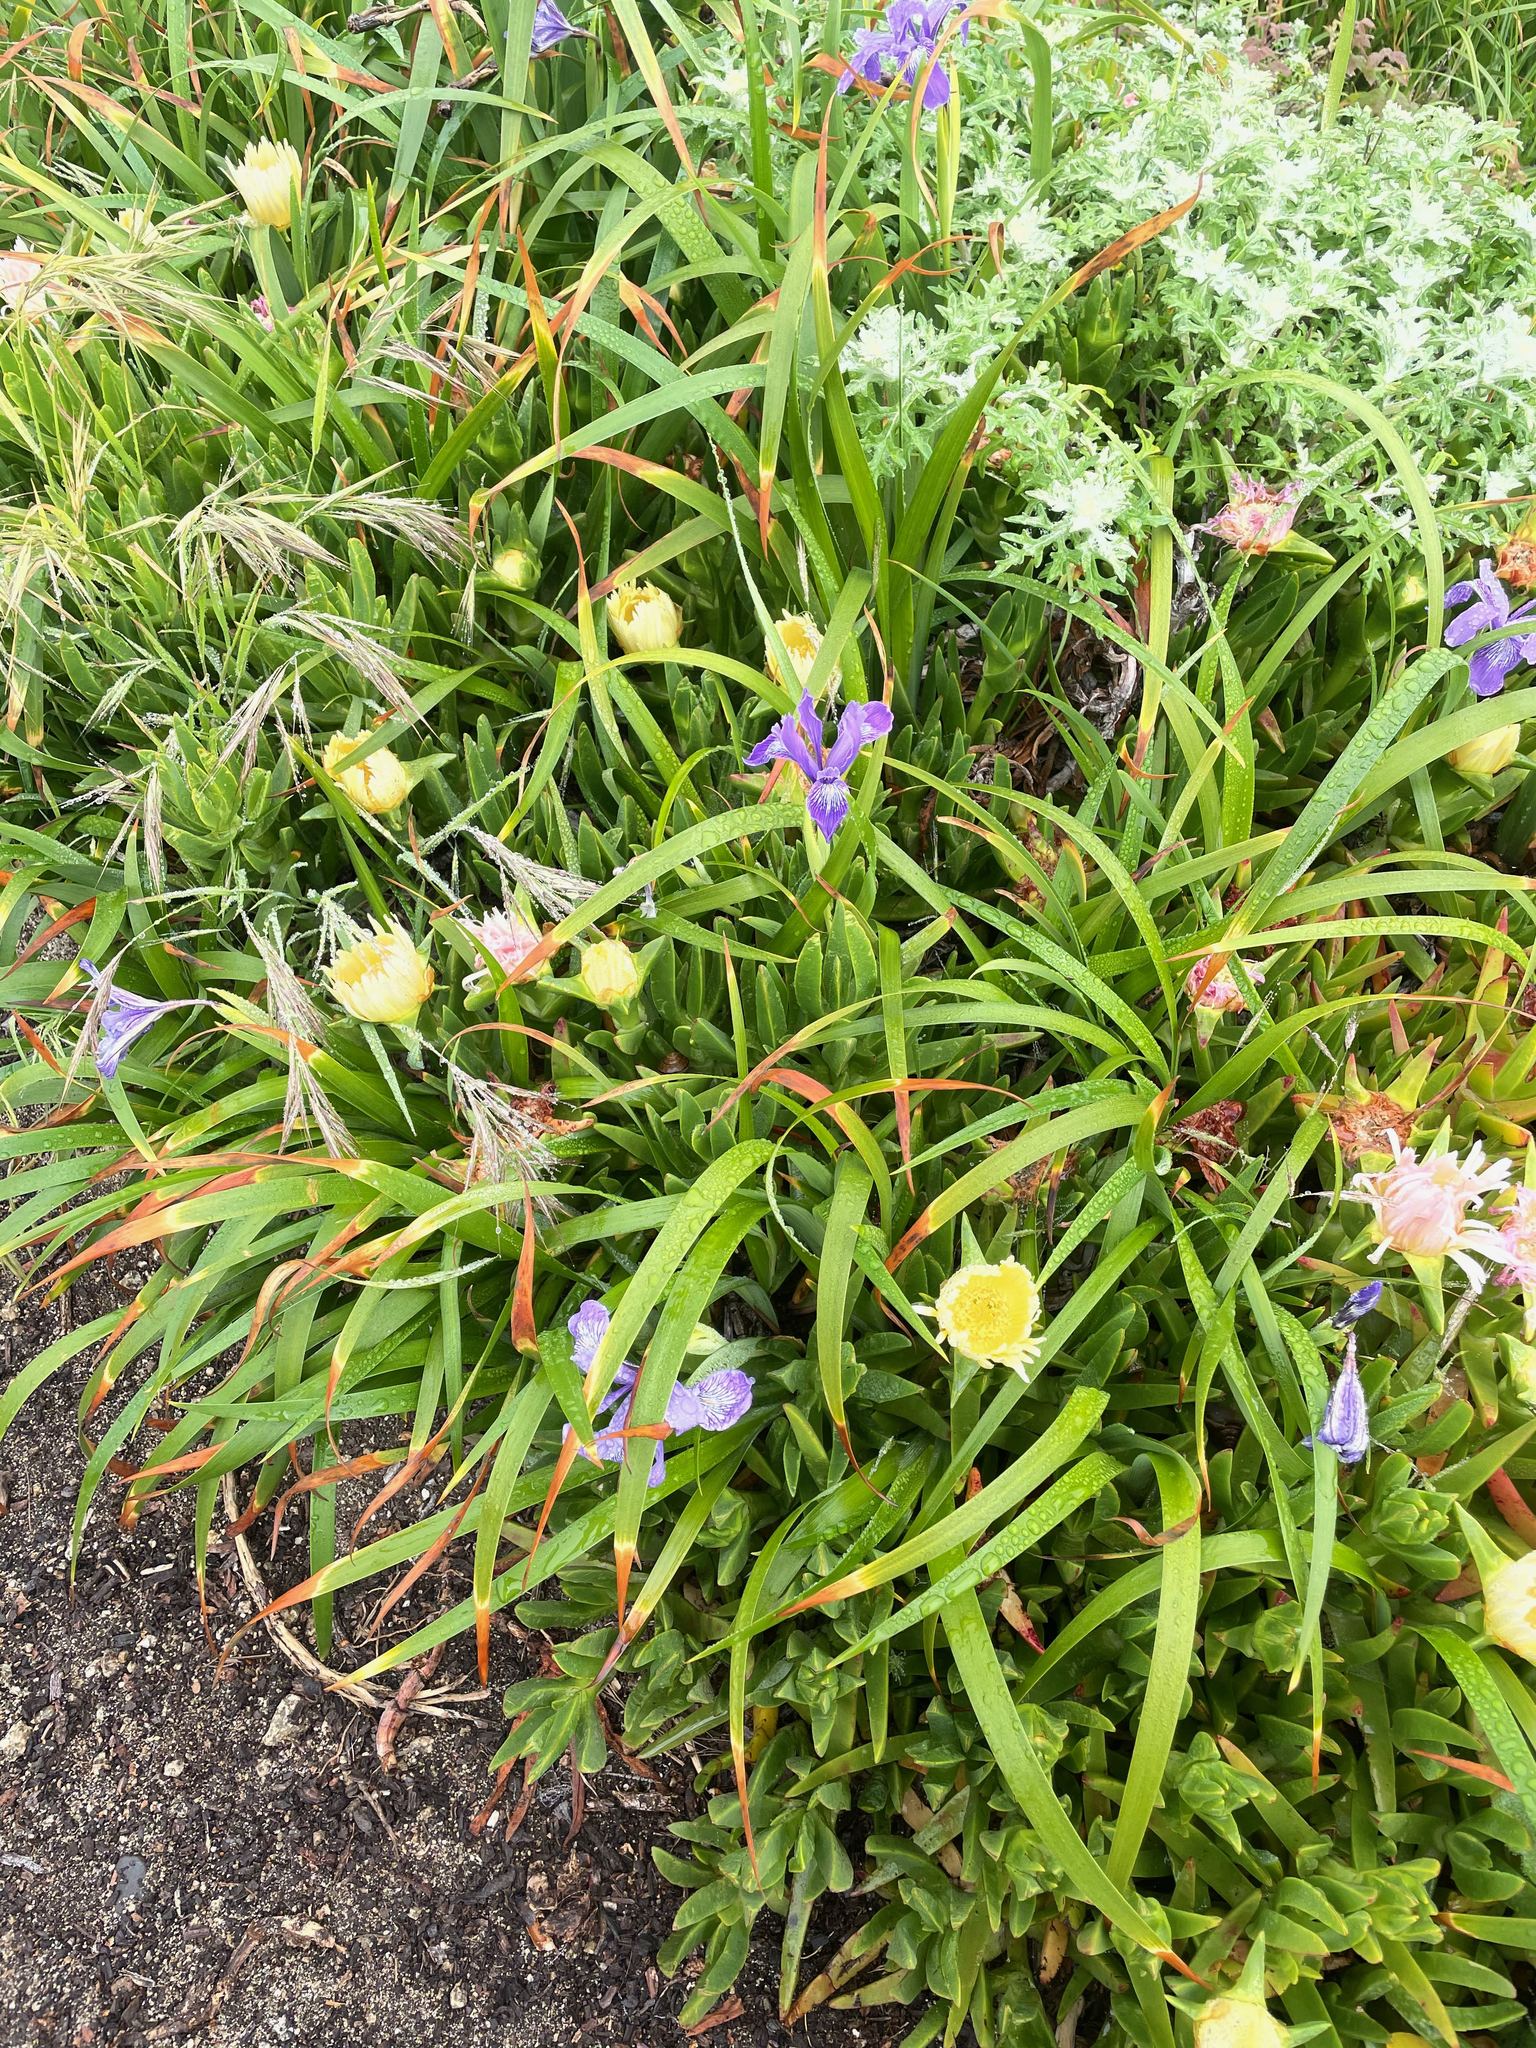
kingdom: Plantae
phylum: Tracheophyta
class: Liliopsida
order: Asparagales
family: Iridaceae
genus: Iris
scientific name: Iris douglasiana
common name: Marin iris
